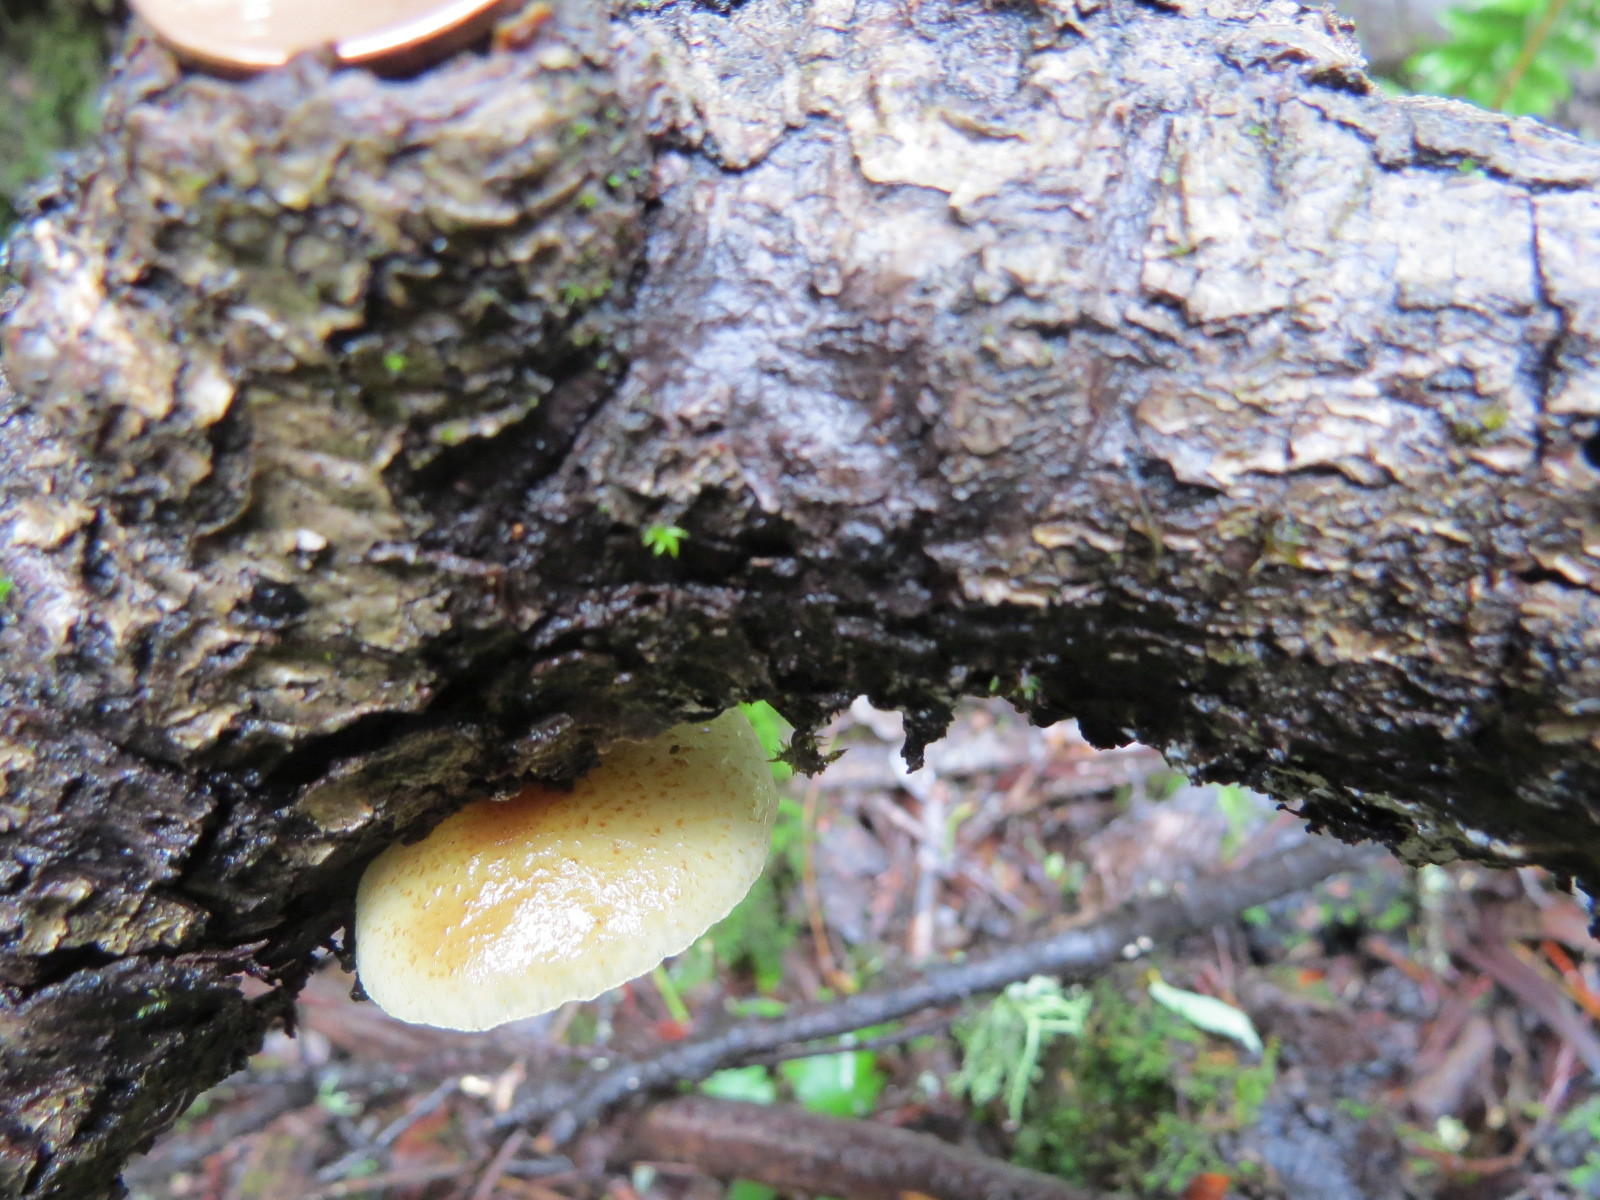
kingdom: Fungi
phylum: Basidiomycota
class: Agaricomycetes
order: Agaricales
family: Crepidotaceae
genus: Crepidotus
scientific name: Crepidotus mollis
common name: Peeling oysterling
